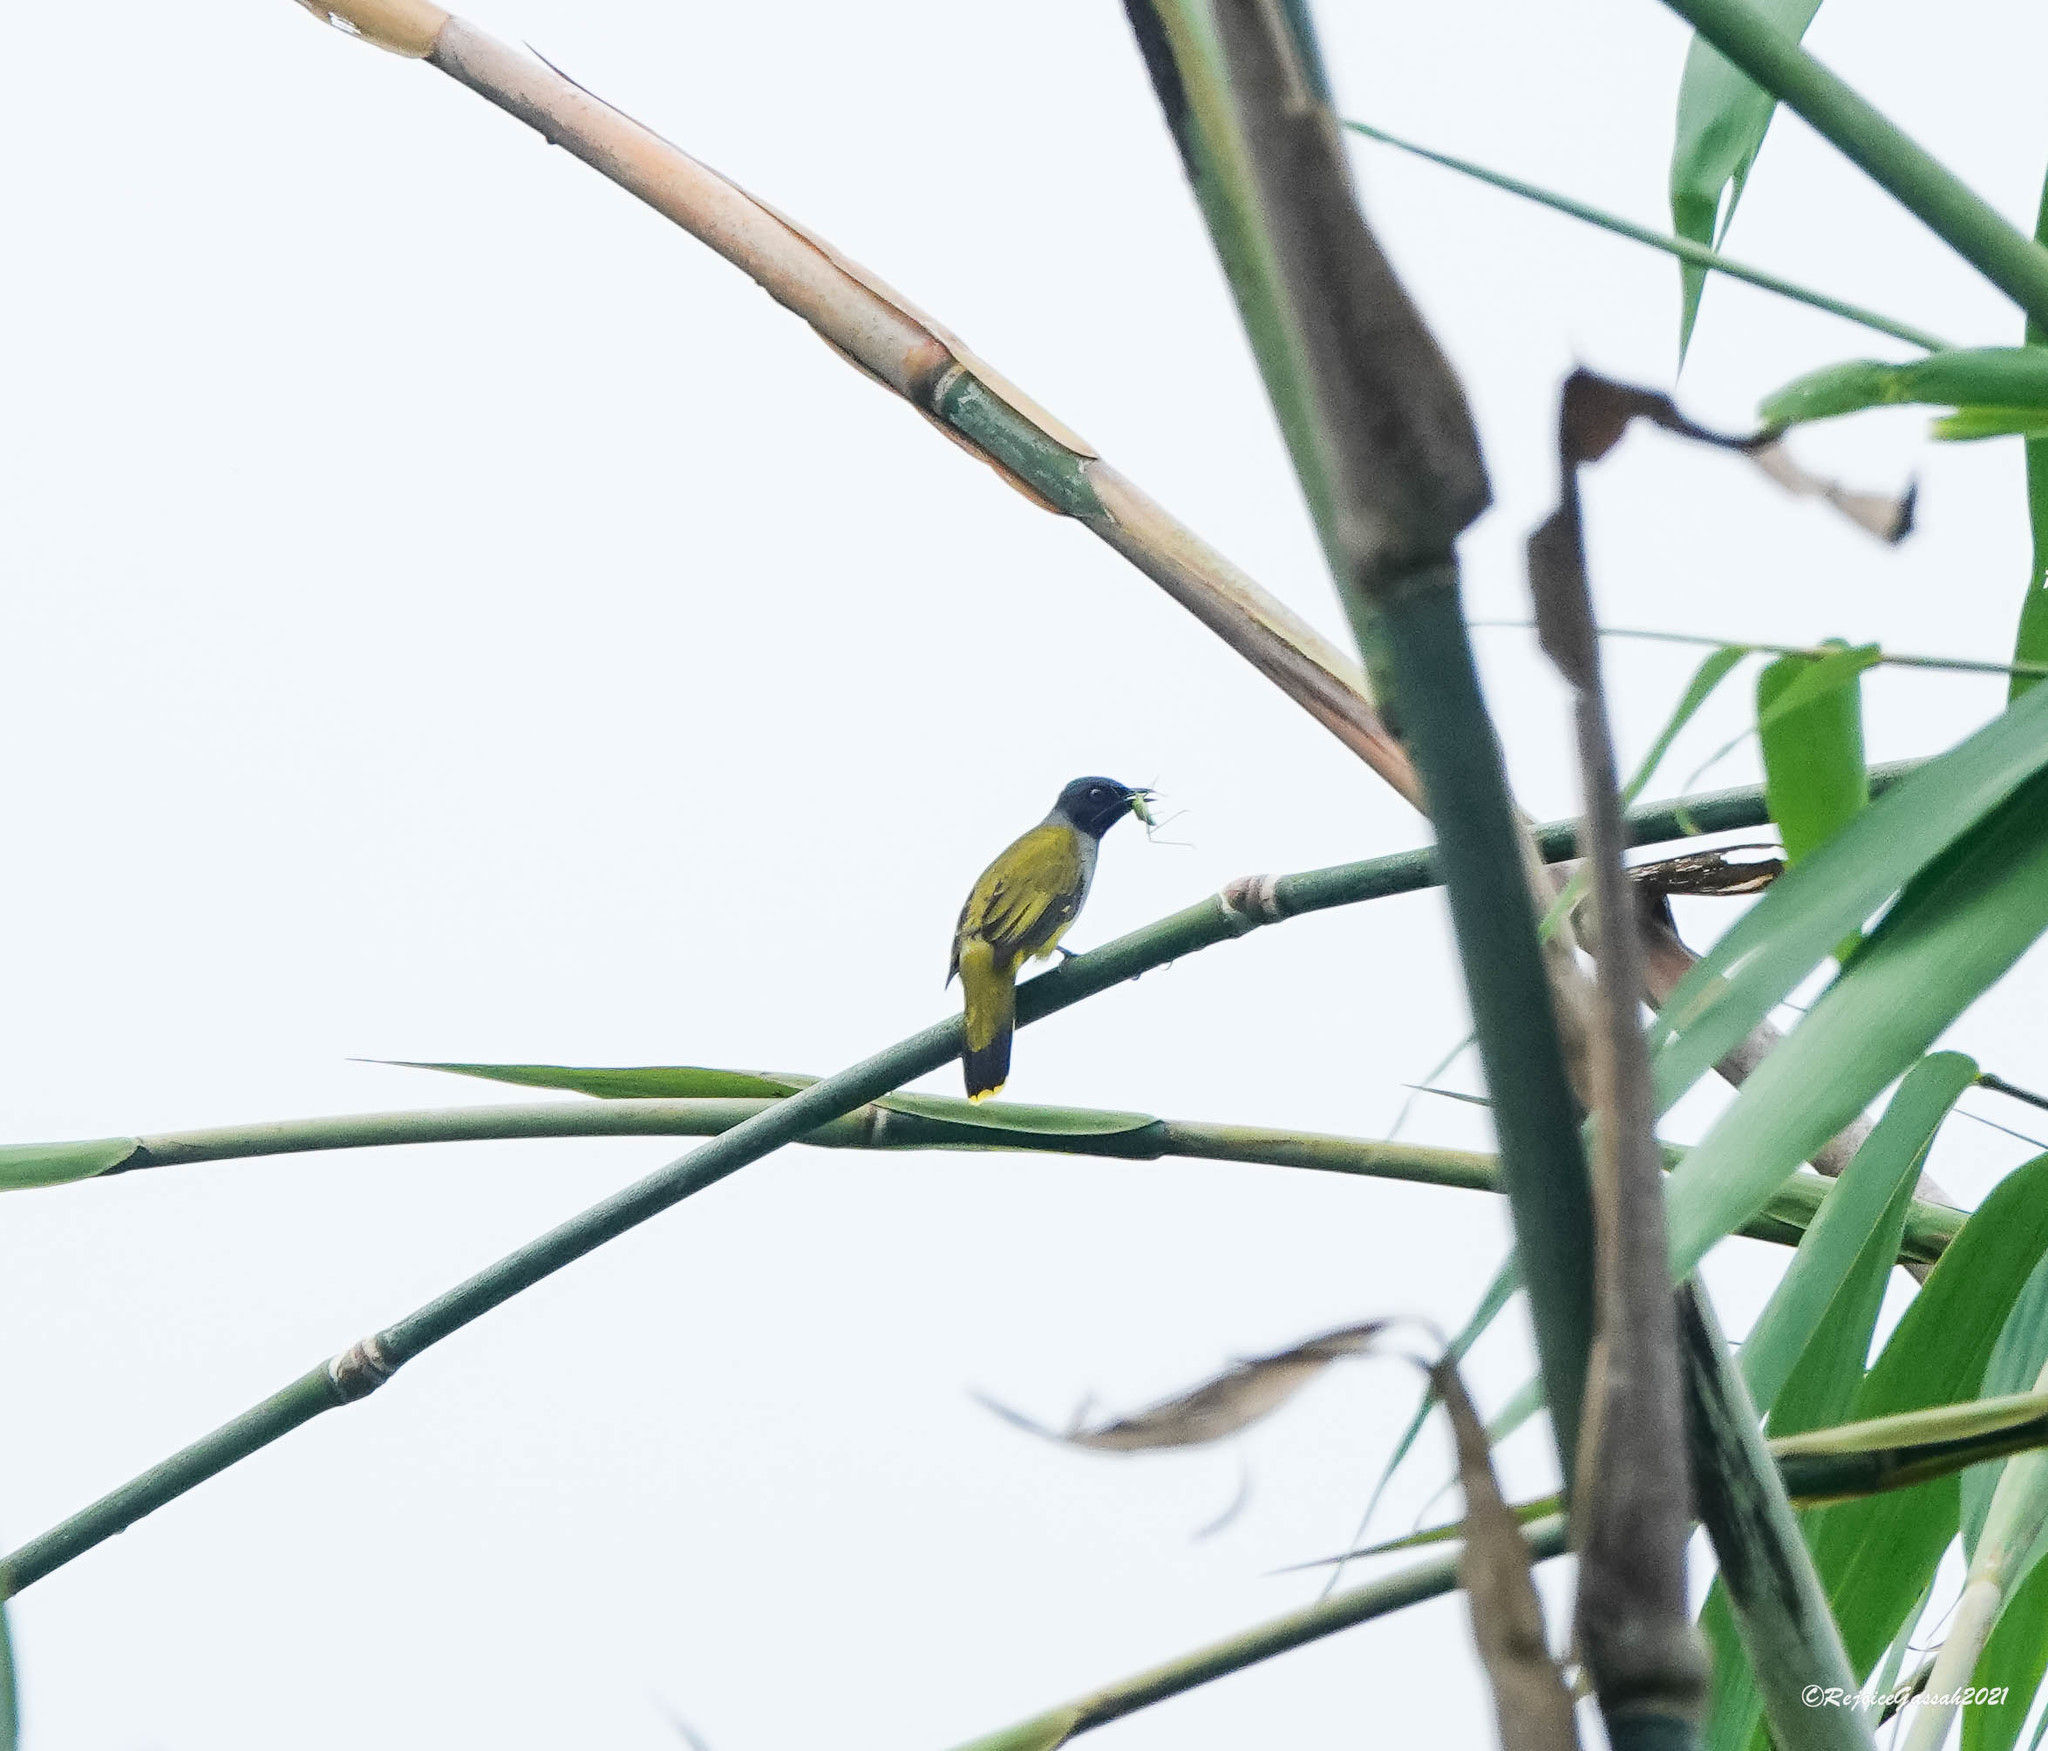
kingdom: Animalia
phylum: Chordata
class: Aves
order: Passeriformes
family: Pycnonotidae
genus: Microtarsus
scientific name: Microtarsus
